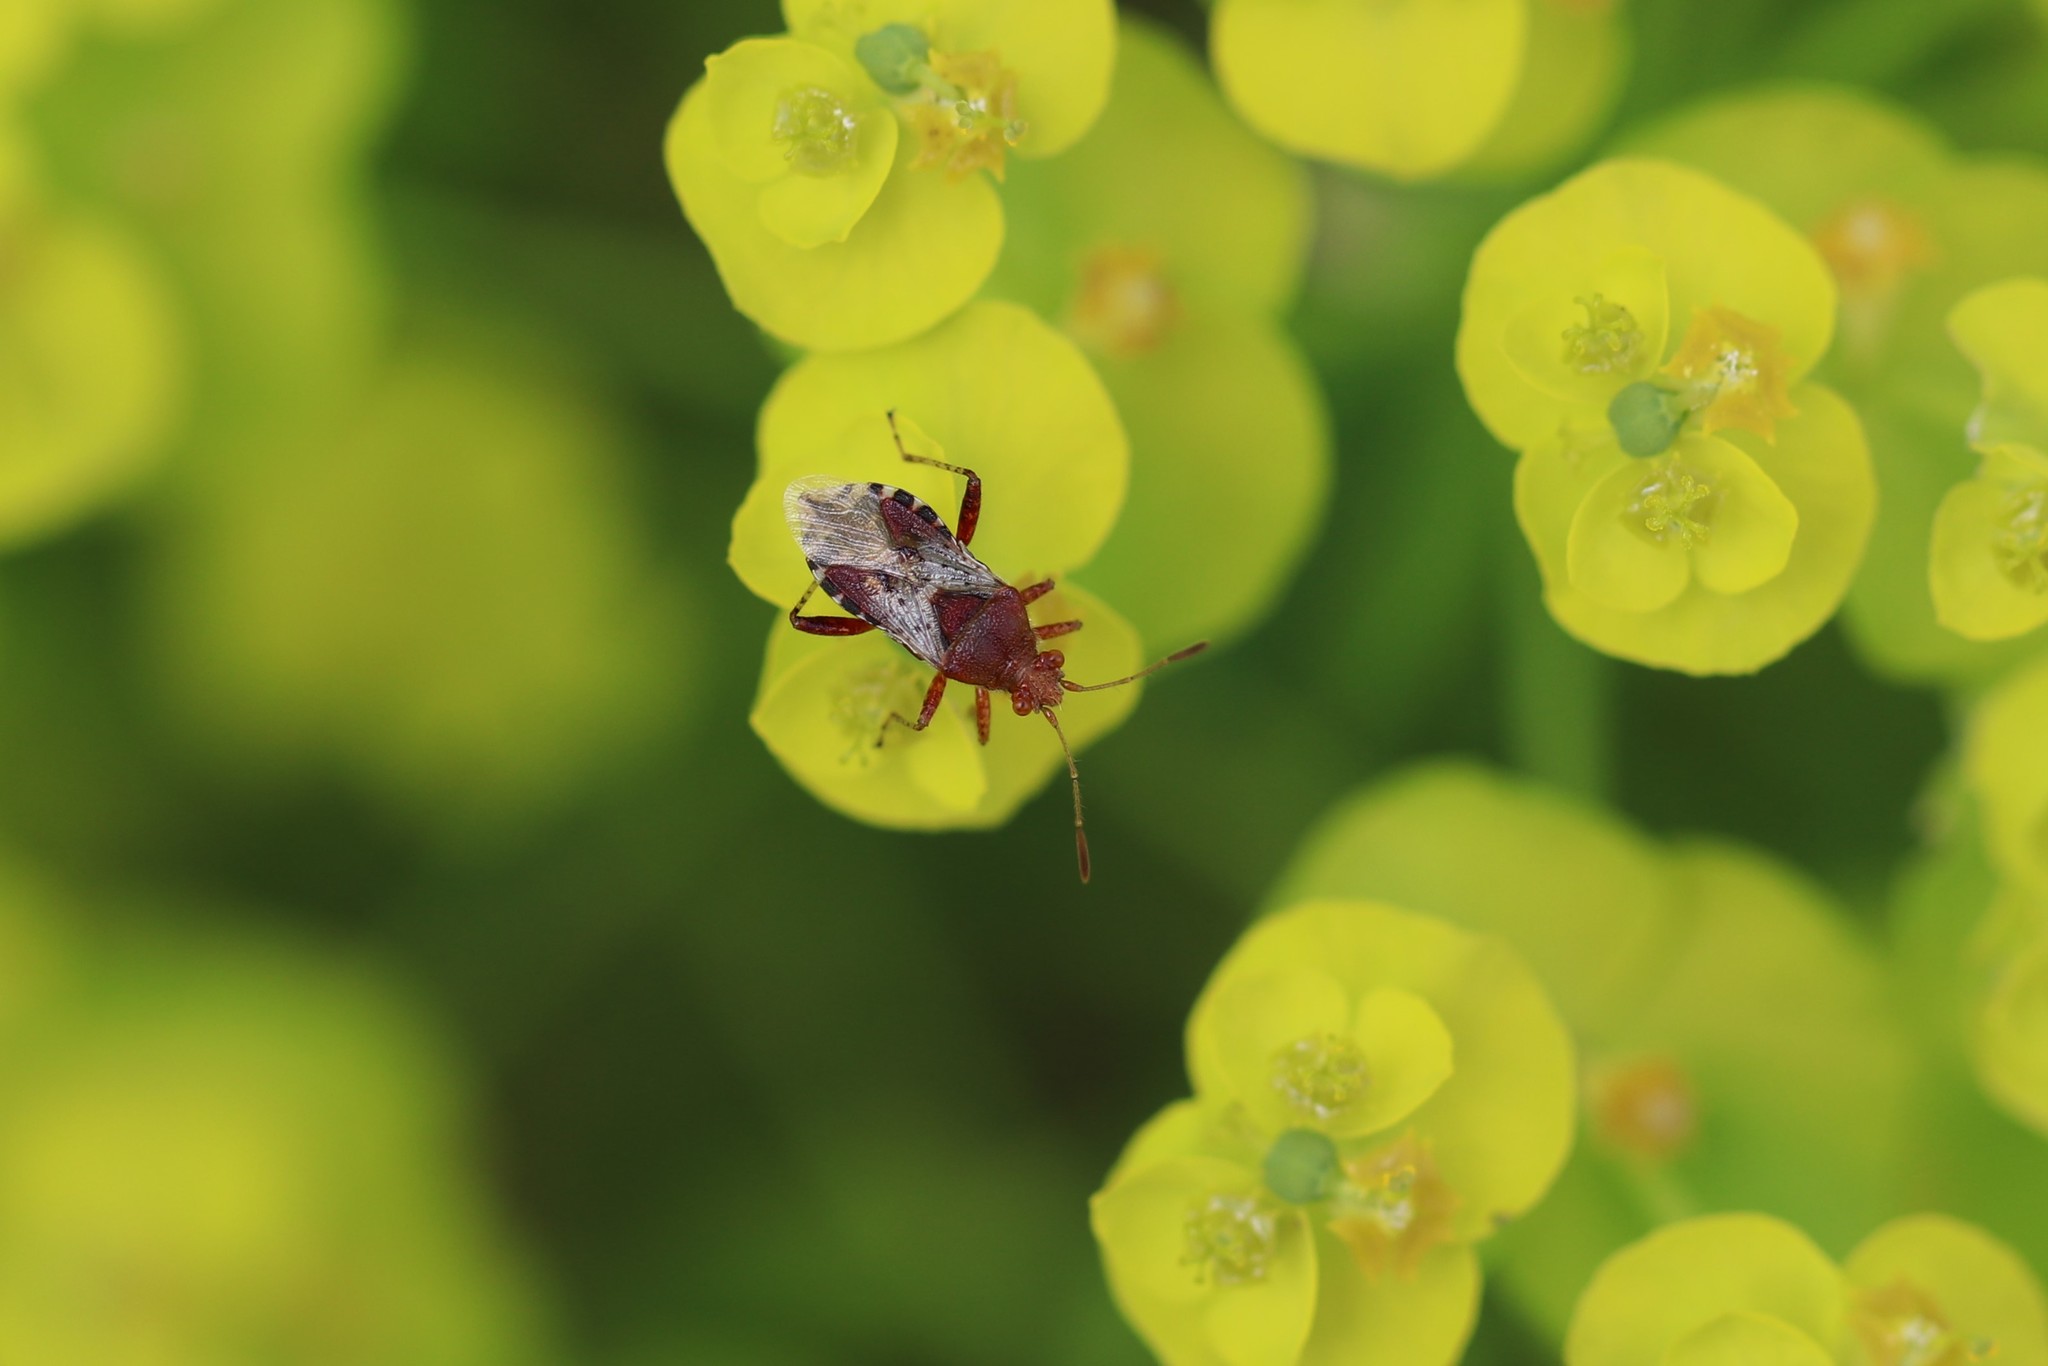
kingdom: Animalia
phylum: Arthropoda
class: Insecta
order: Hemiptera
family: Rhopalidae
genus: Rhopalus
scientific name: Rhopalus subrufus
